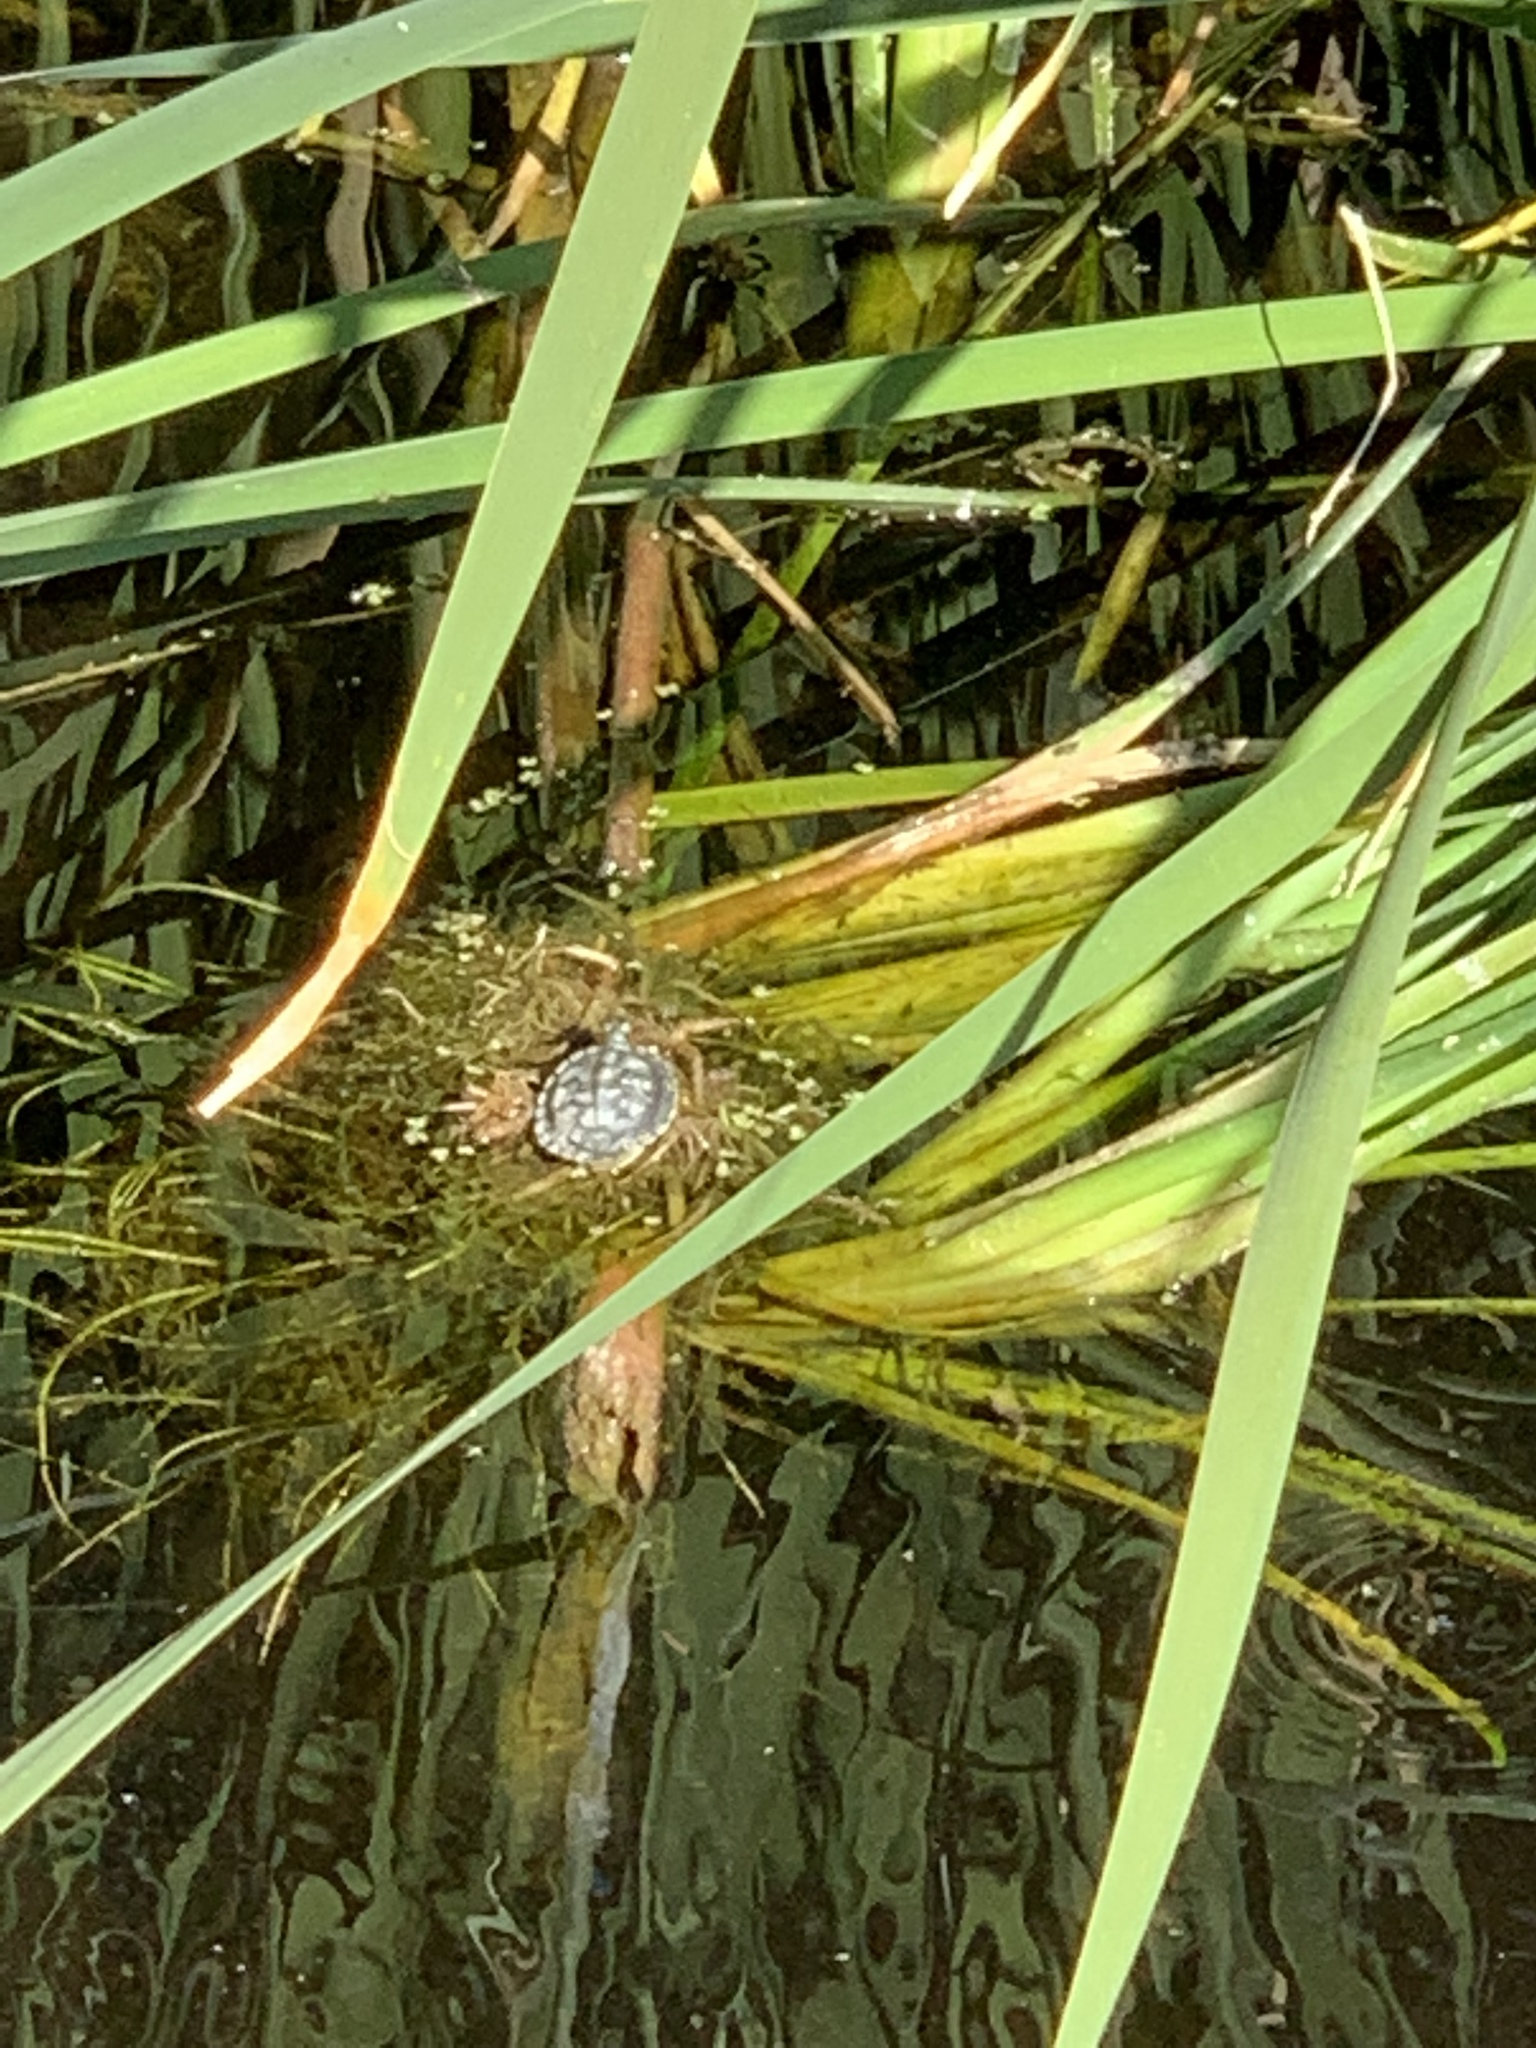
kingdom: Animalia
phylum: Chordata
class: Testudines
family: Emydidae
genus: Trachemys
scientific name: Trachemys scripta
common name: Slider
